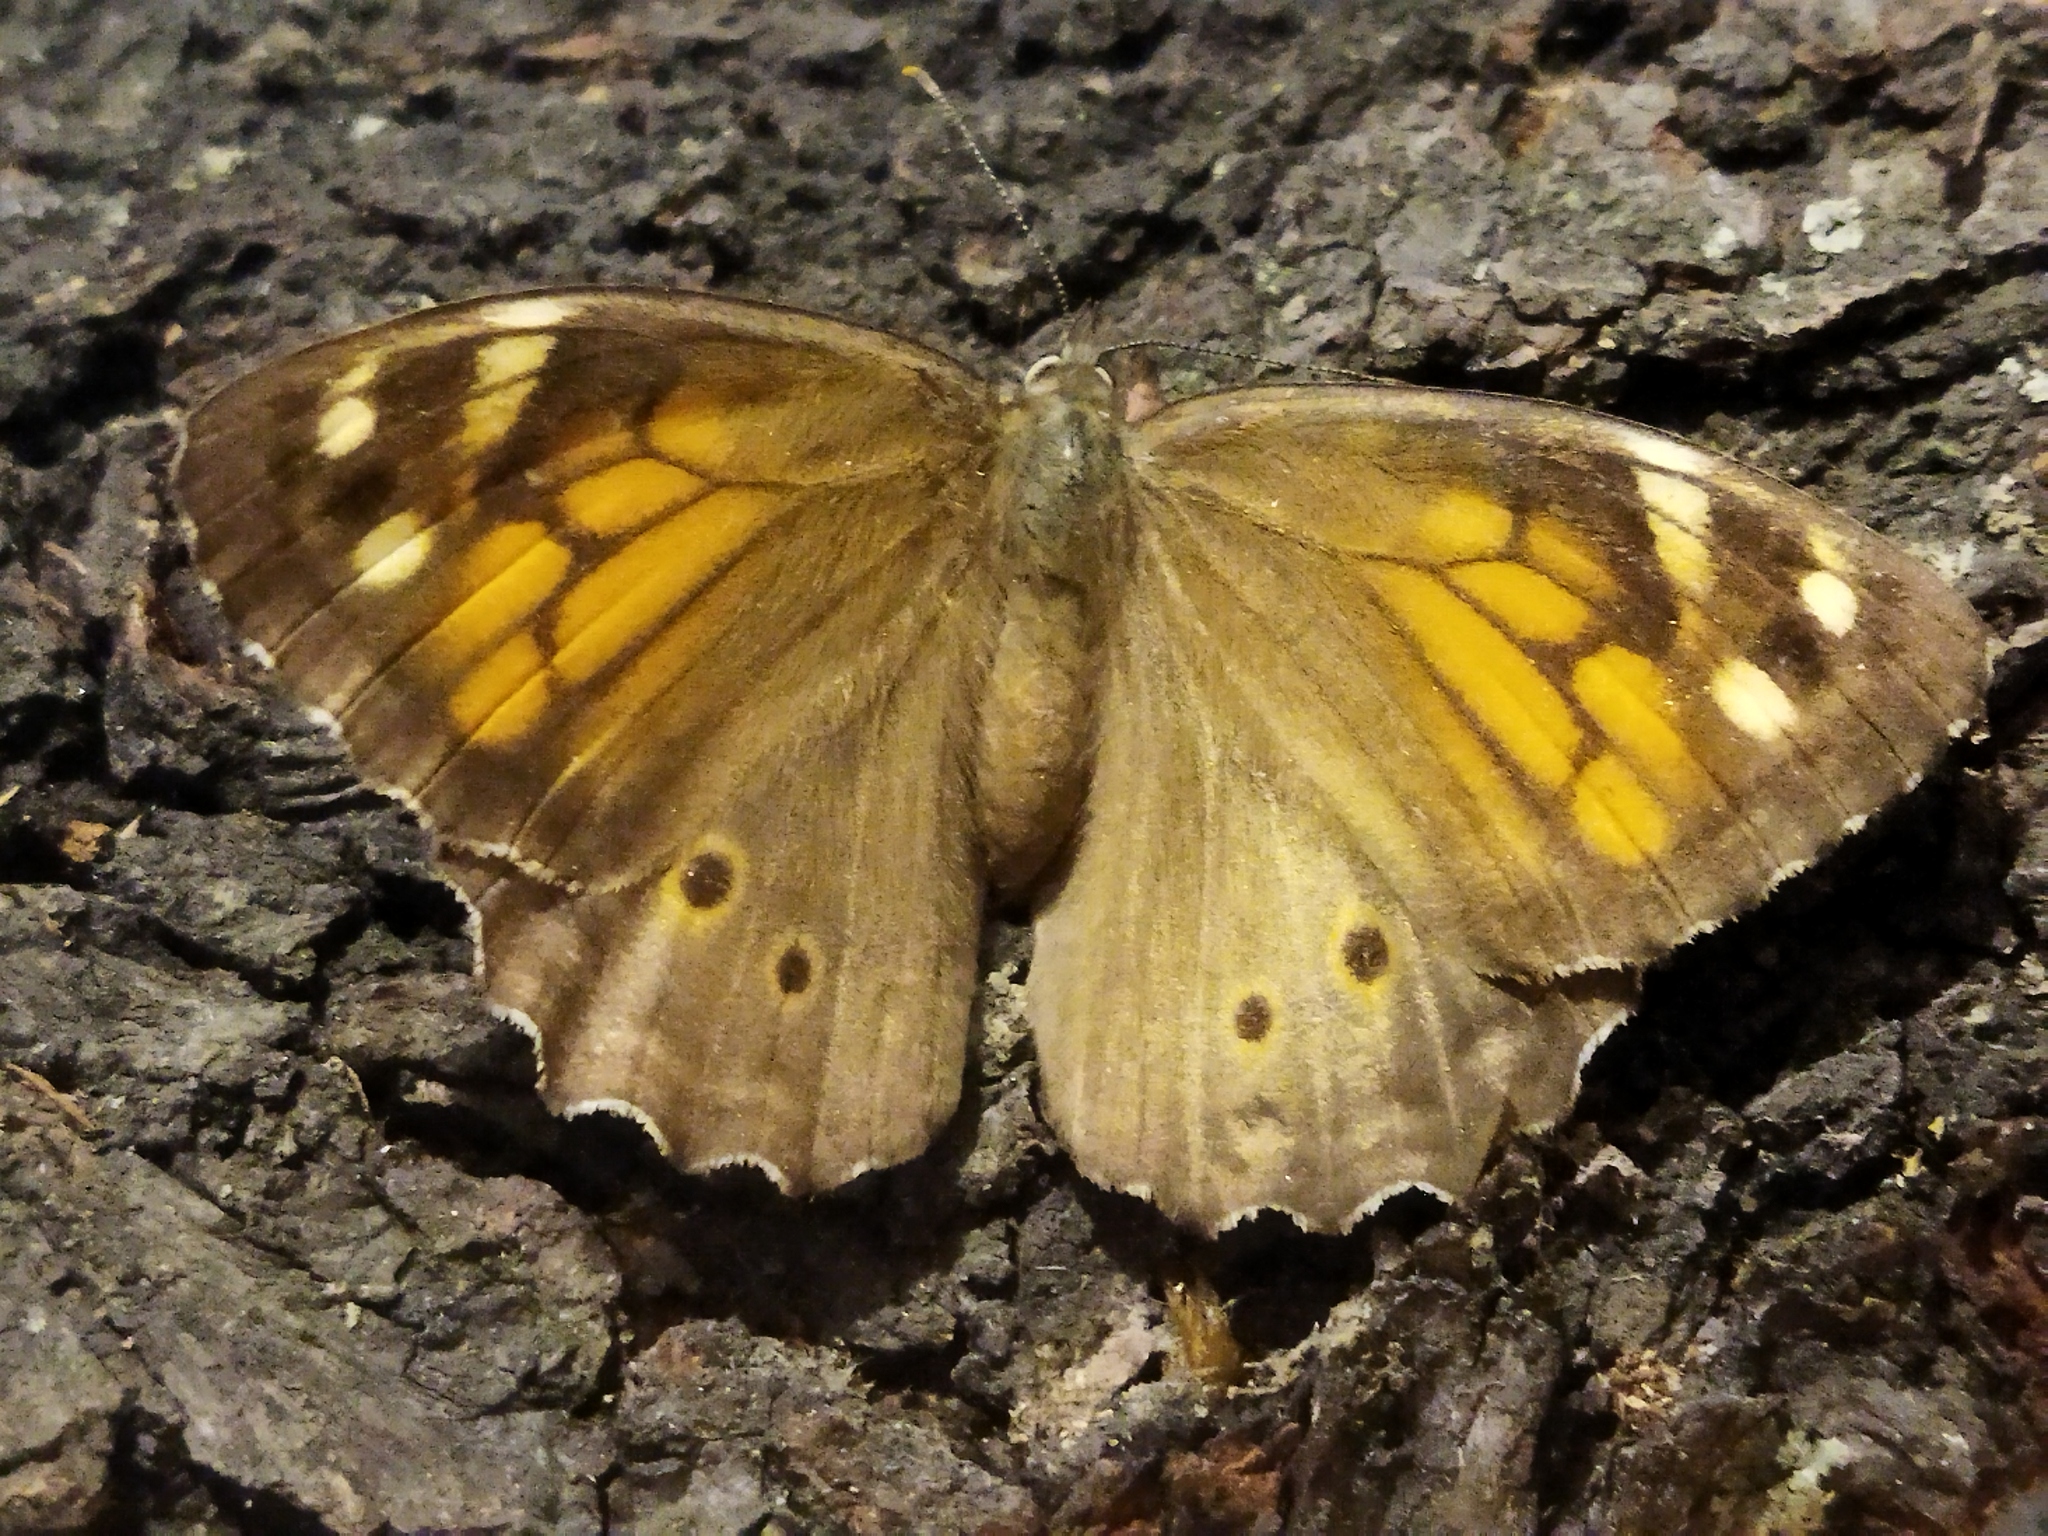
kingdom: Animalia
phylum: Arthropoda
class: Insecta
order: Lepidoptera
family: Nymphalidae
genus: Kirinia
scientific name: Kirinia roxelana
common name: Lattice brown
